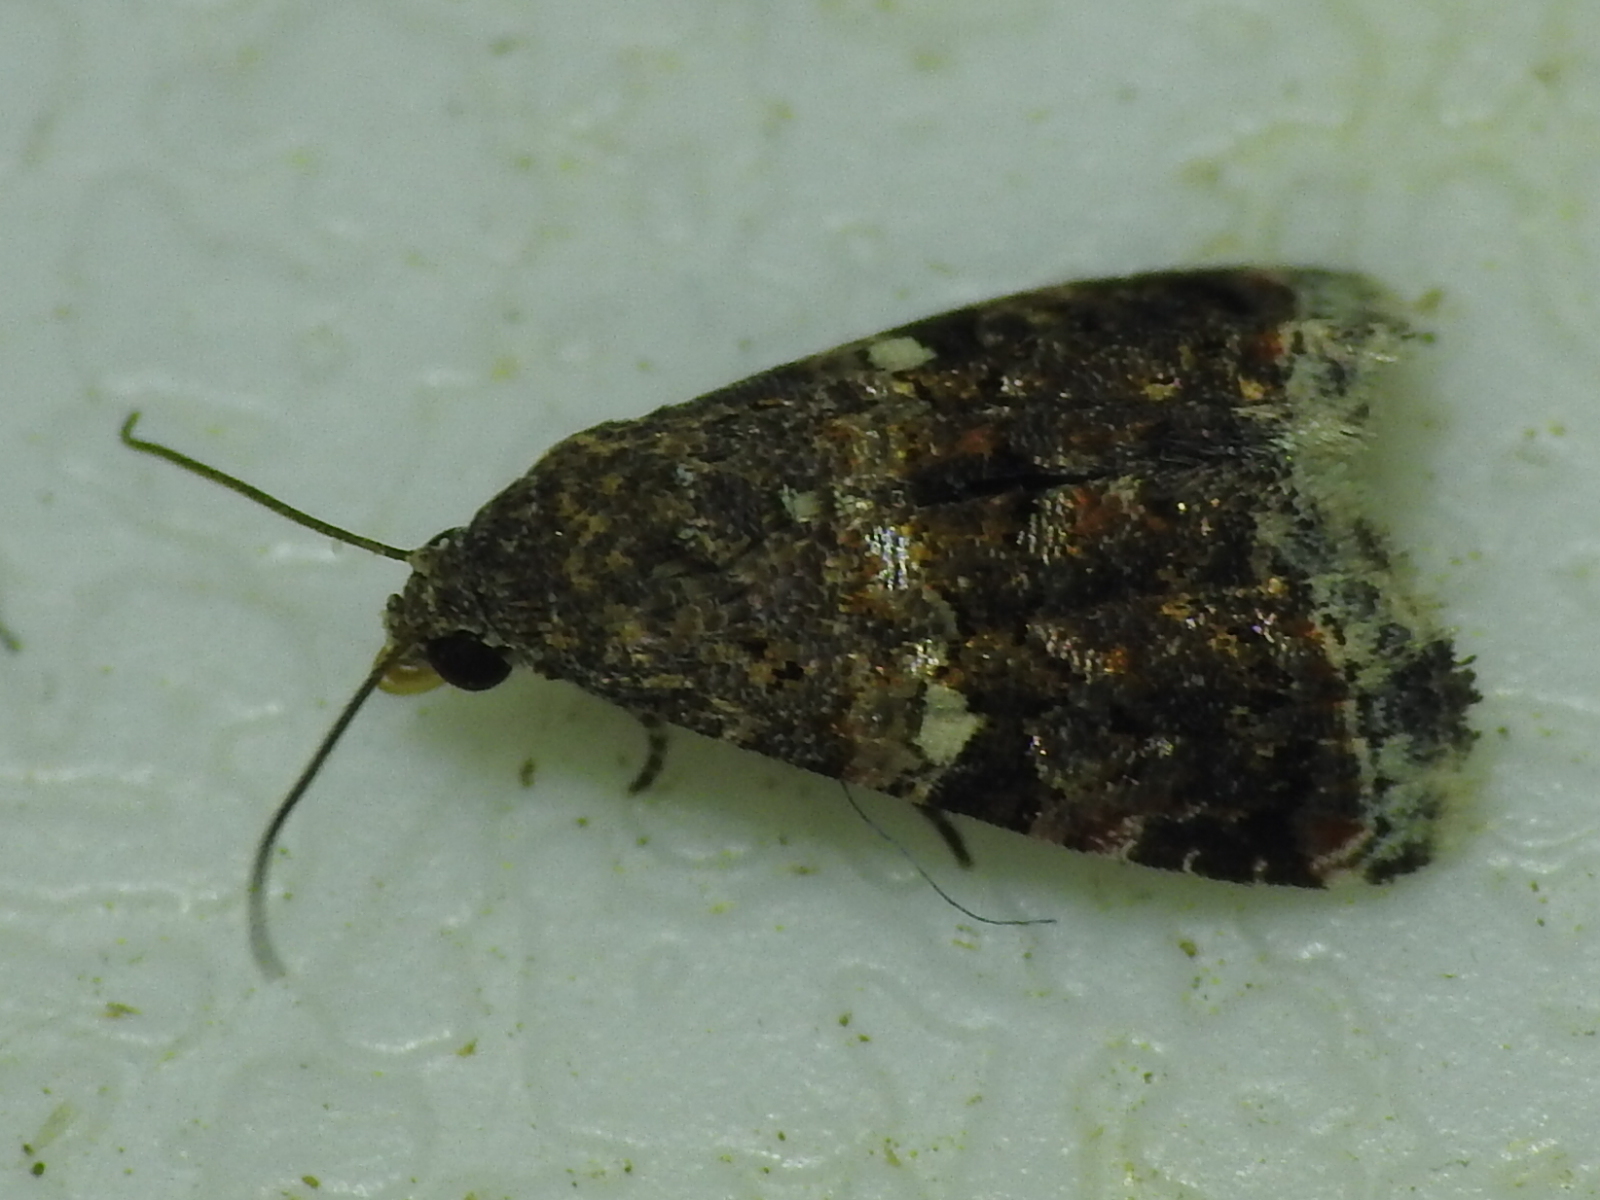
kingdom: Animalia
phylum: Arthropoda
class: Insecta
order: Lepidoptera
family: Noctuidae
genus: Tripudia
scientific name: Tripudia luxuriosa
